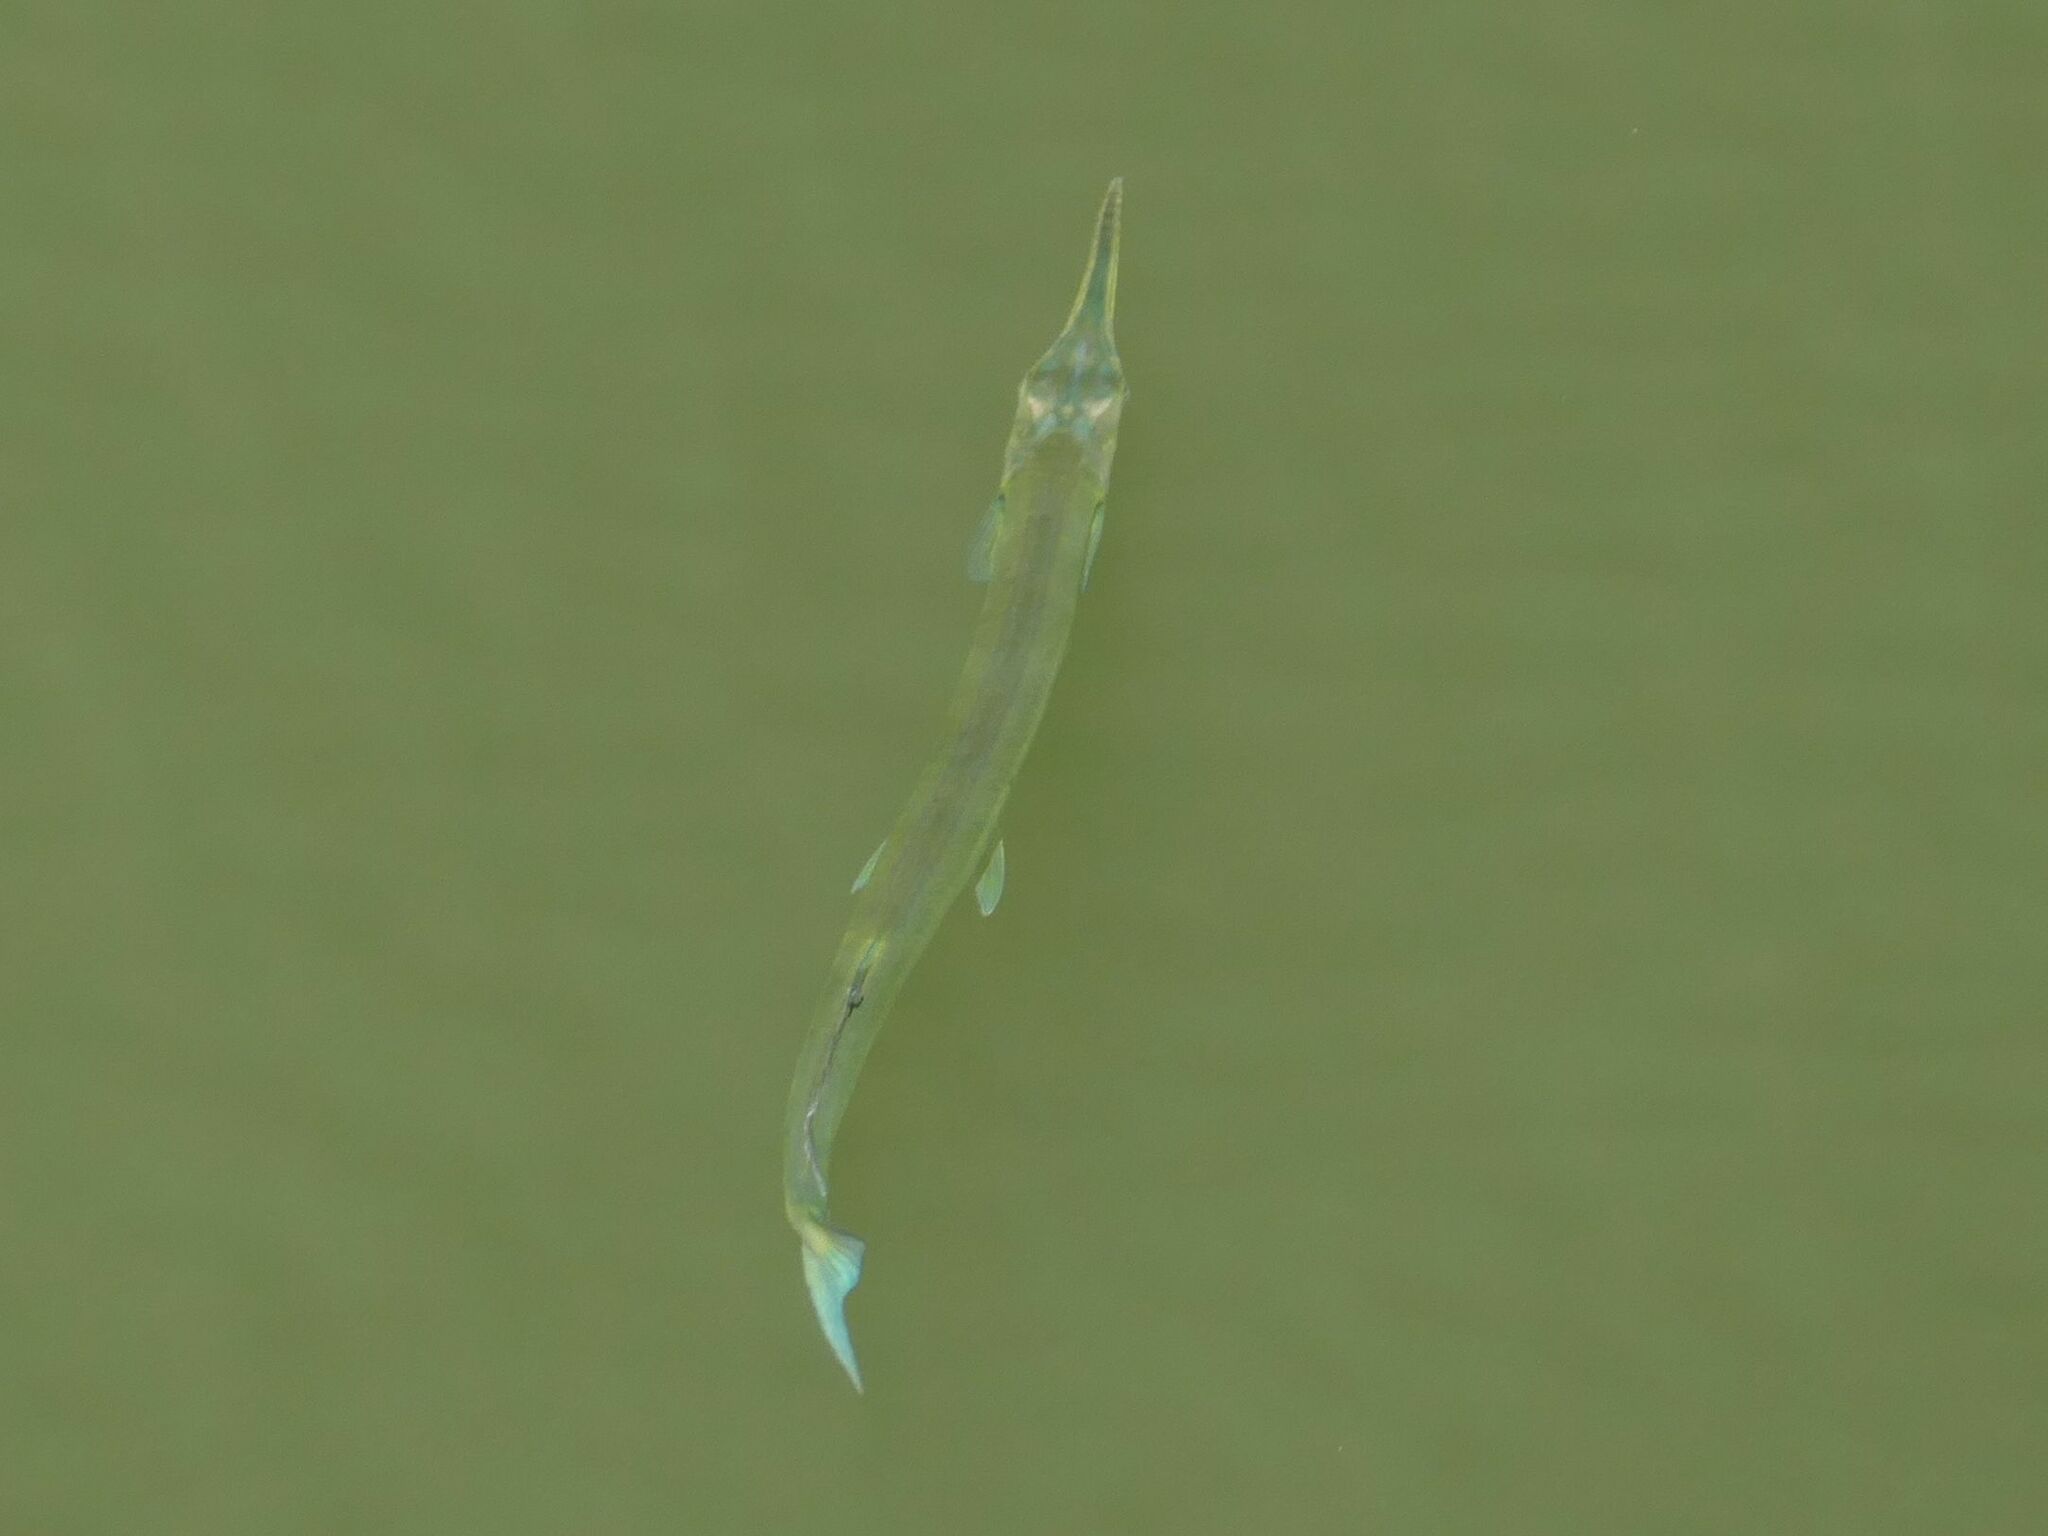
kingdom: Animalia
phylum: Chordata
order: Beloniformes
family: Belonidae
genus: Tylosurus
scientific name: Tylosurus crocodilus
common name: Houndfish
